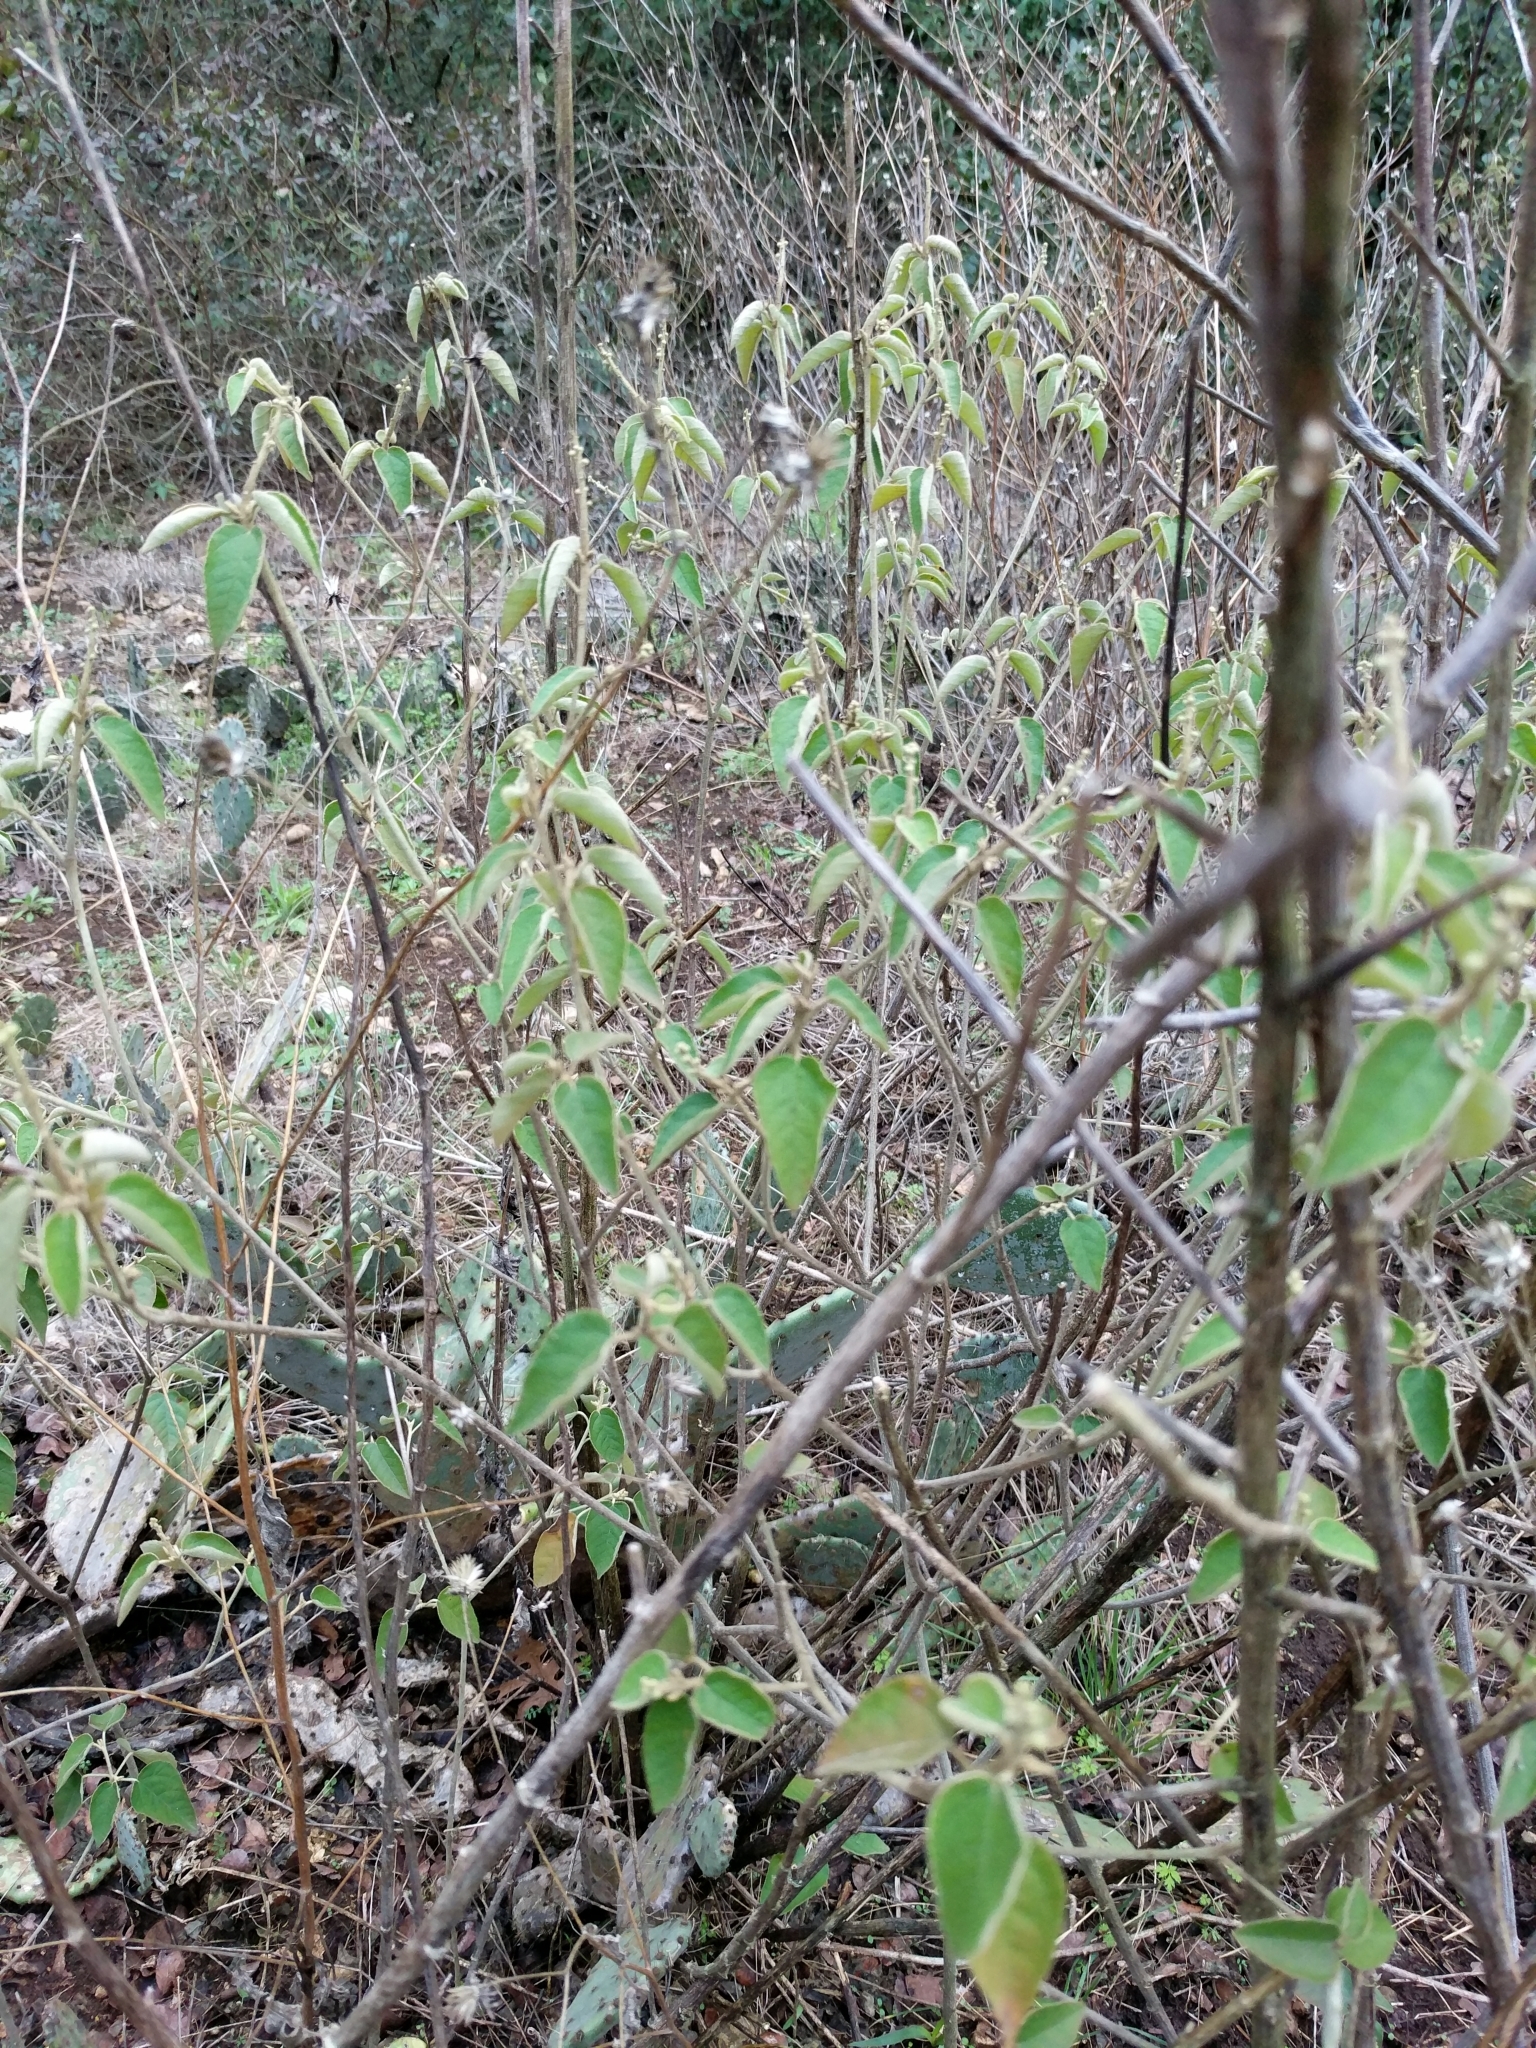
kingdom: Plantae
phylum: Tracheophyta
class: Magnoliopsida
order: Malpighiales
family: Euphorbiaceae
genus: Croton
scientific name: Croton fruticulosus
